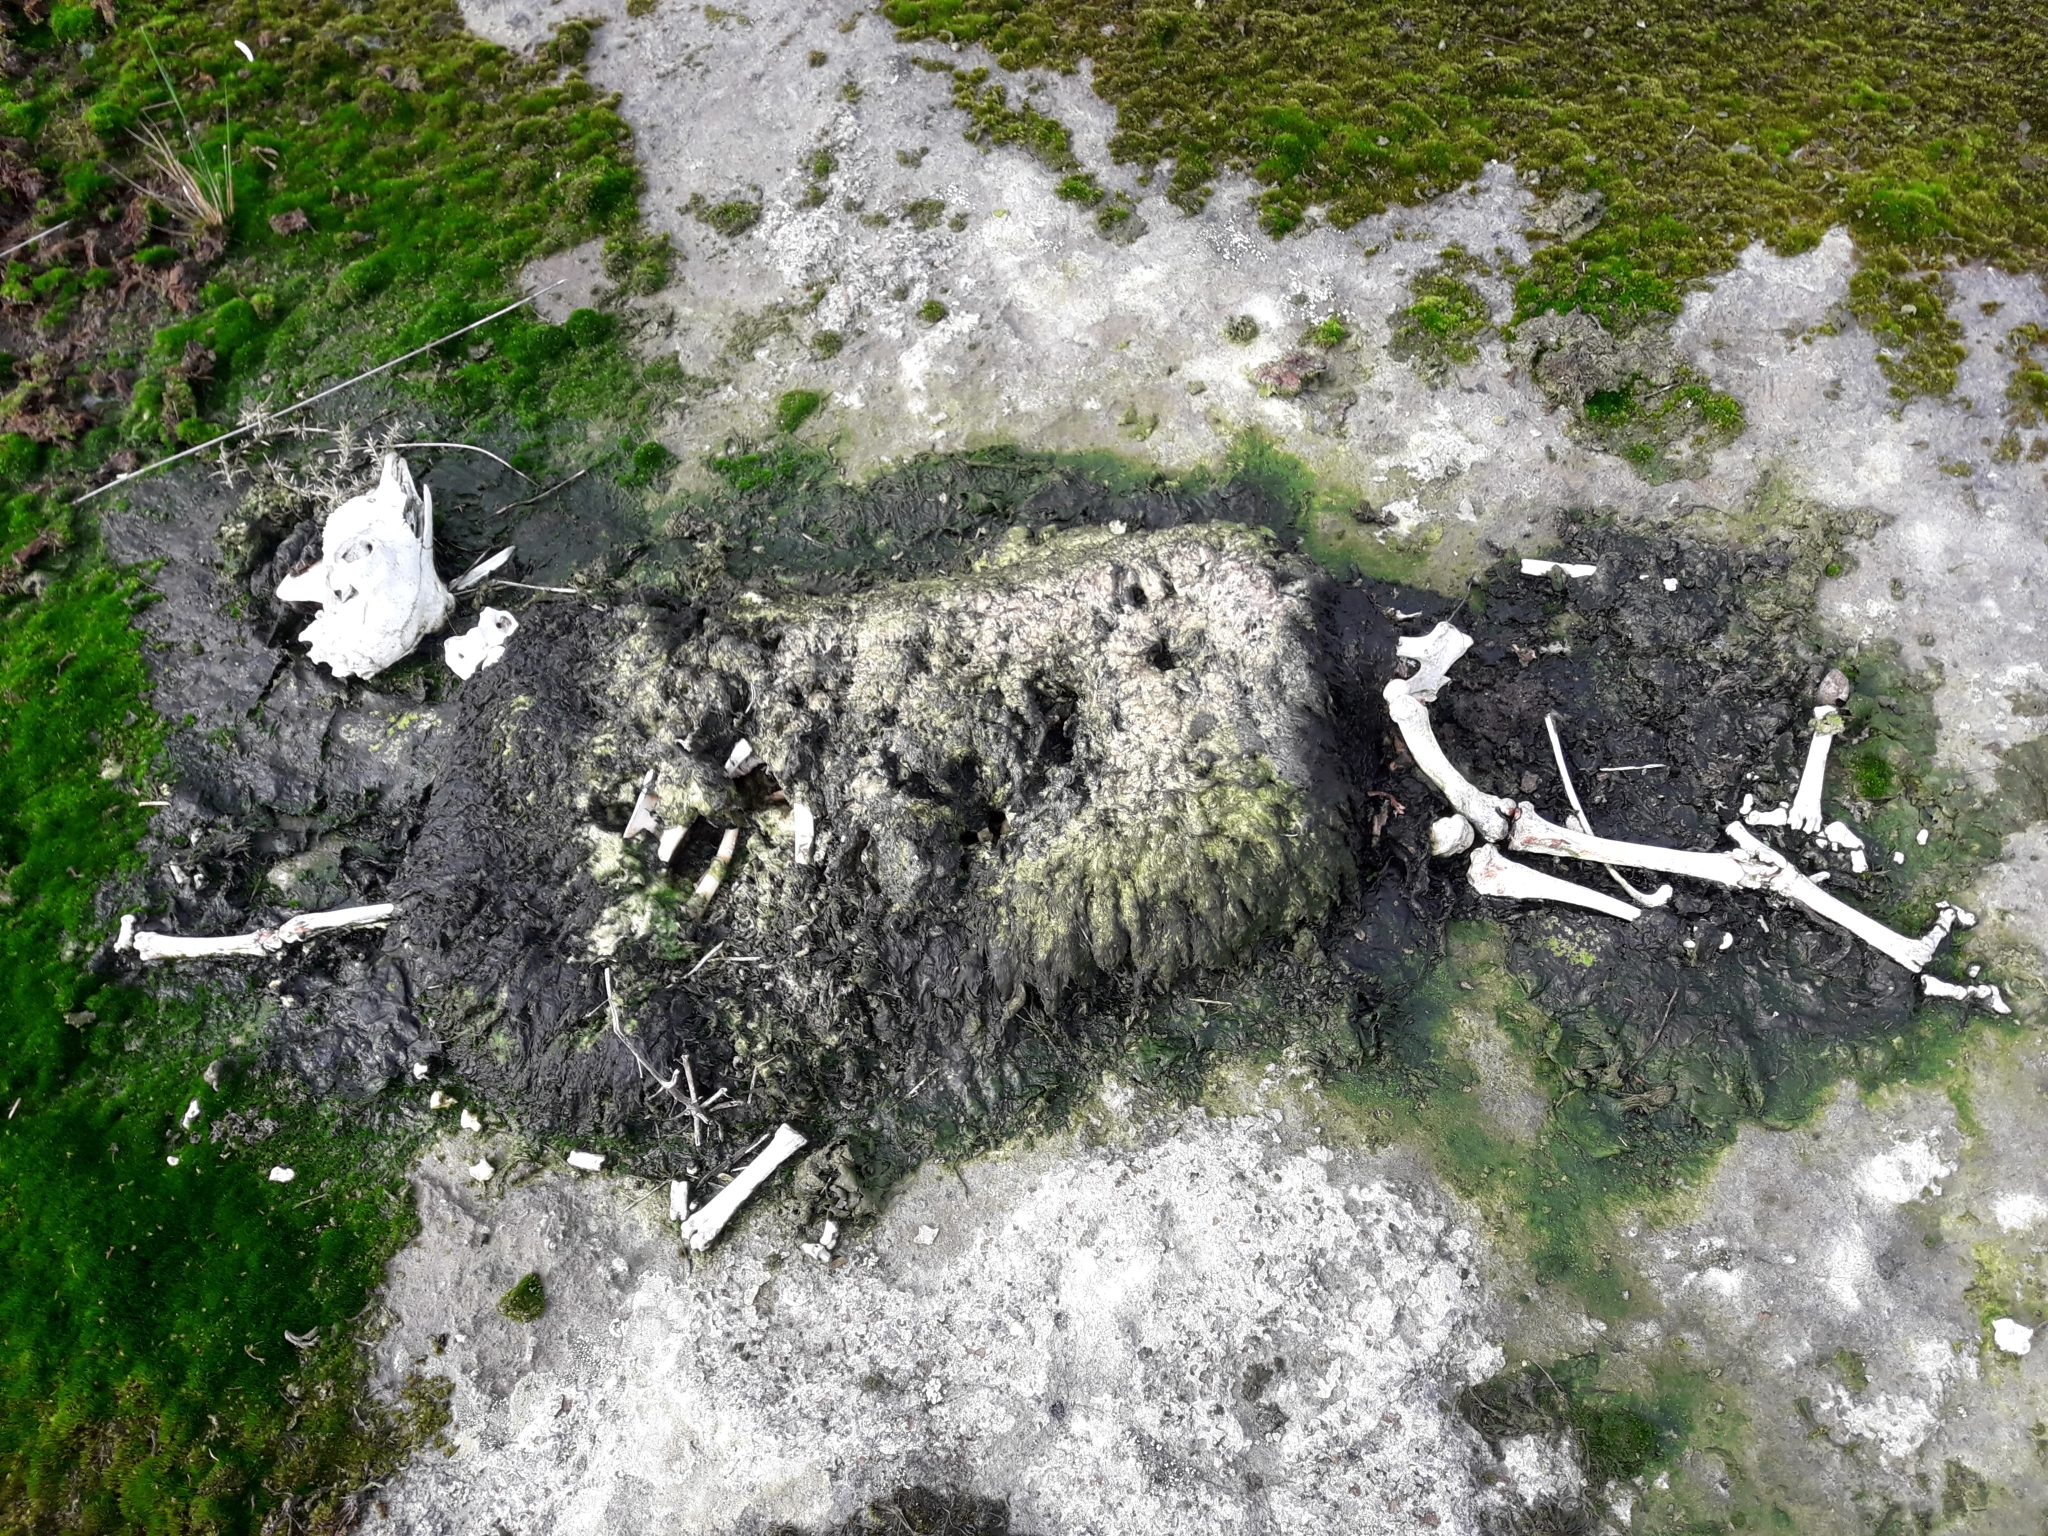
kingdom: Animalia
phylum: Chordata
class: Mammalia
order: Artiodactyla
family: Bovidae
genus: Ovis
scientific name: Ovis aries
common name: Domestic sheep
